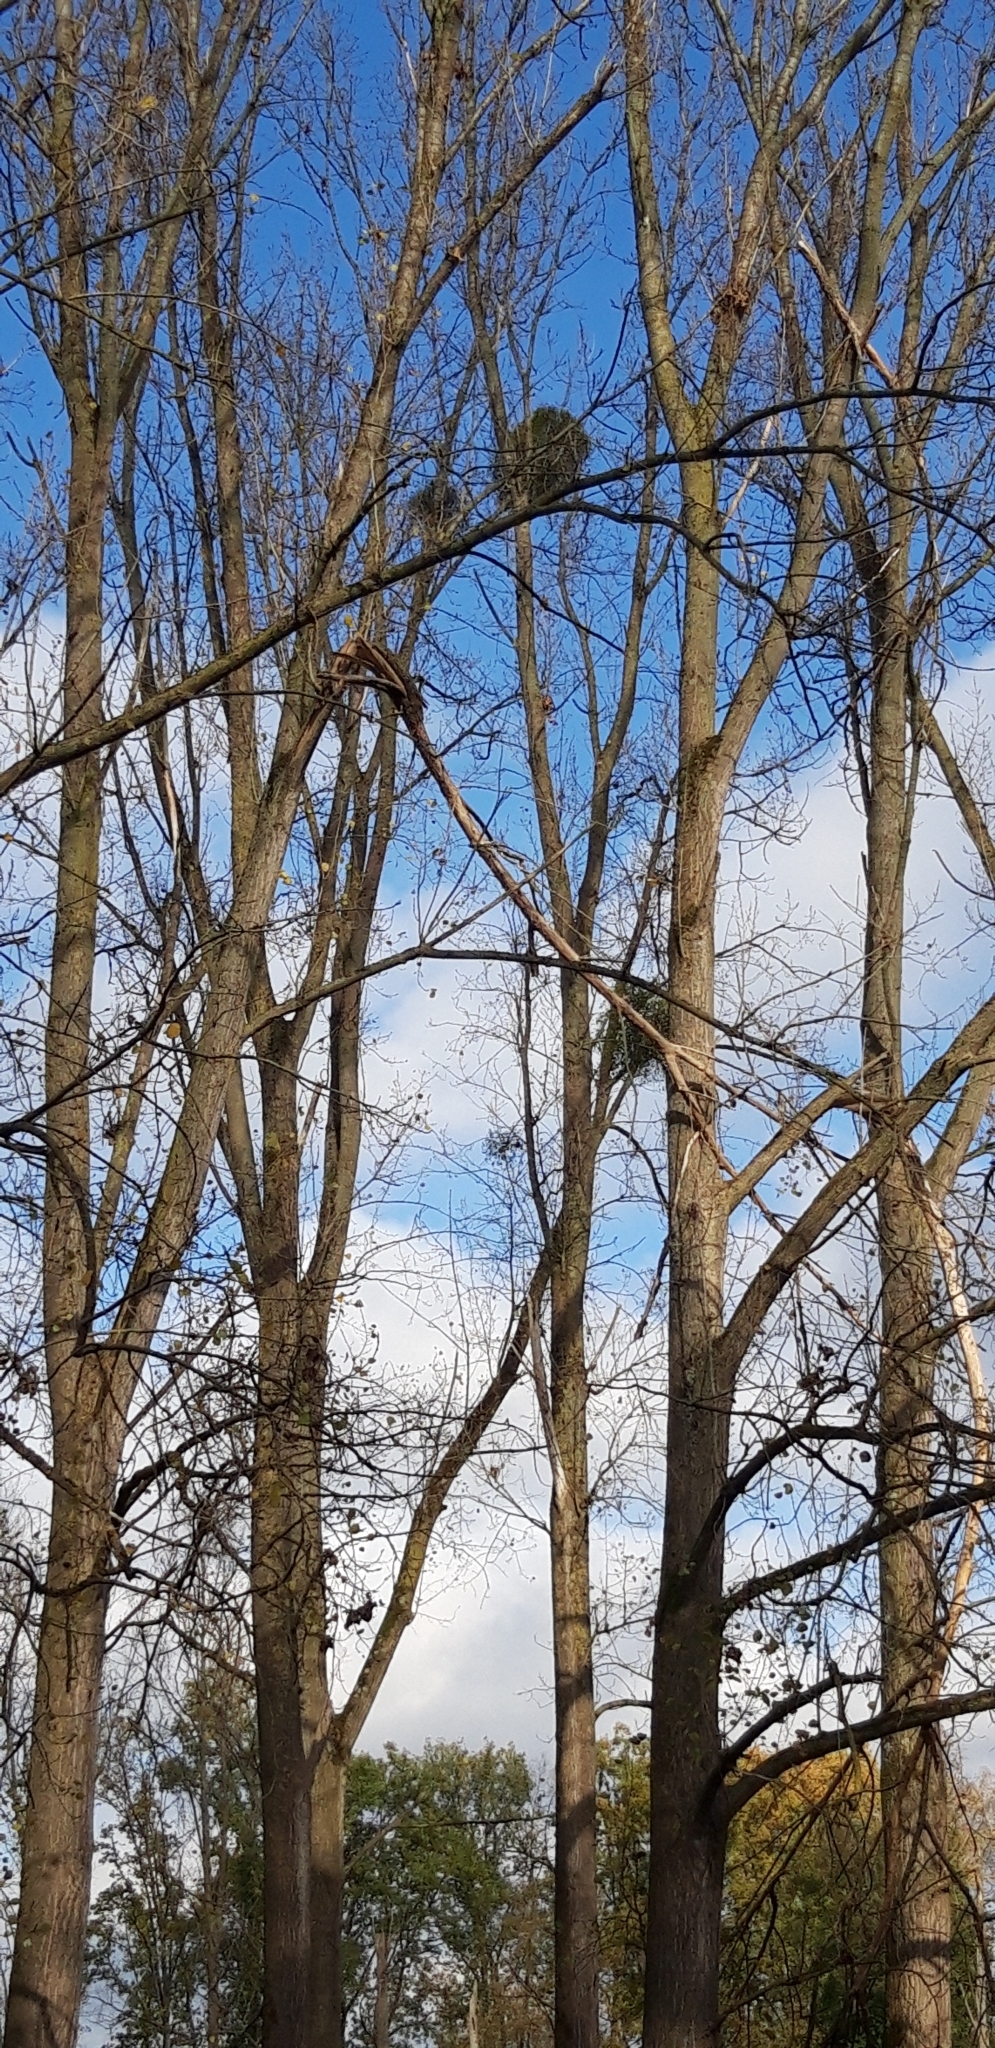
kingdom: Plantae
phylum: Tracheophyta
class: Magnoliopsida
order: Santalales
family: Viscaceae
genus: Viscum
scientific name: Viscum album
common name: Mistletoe
